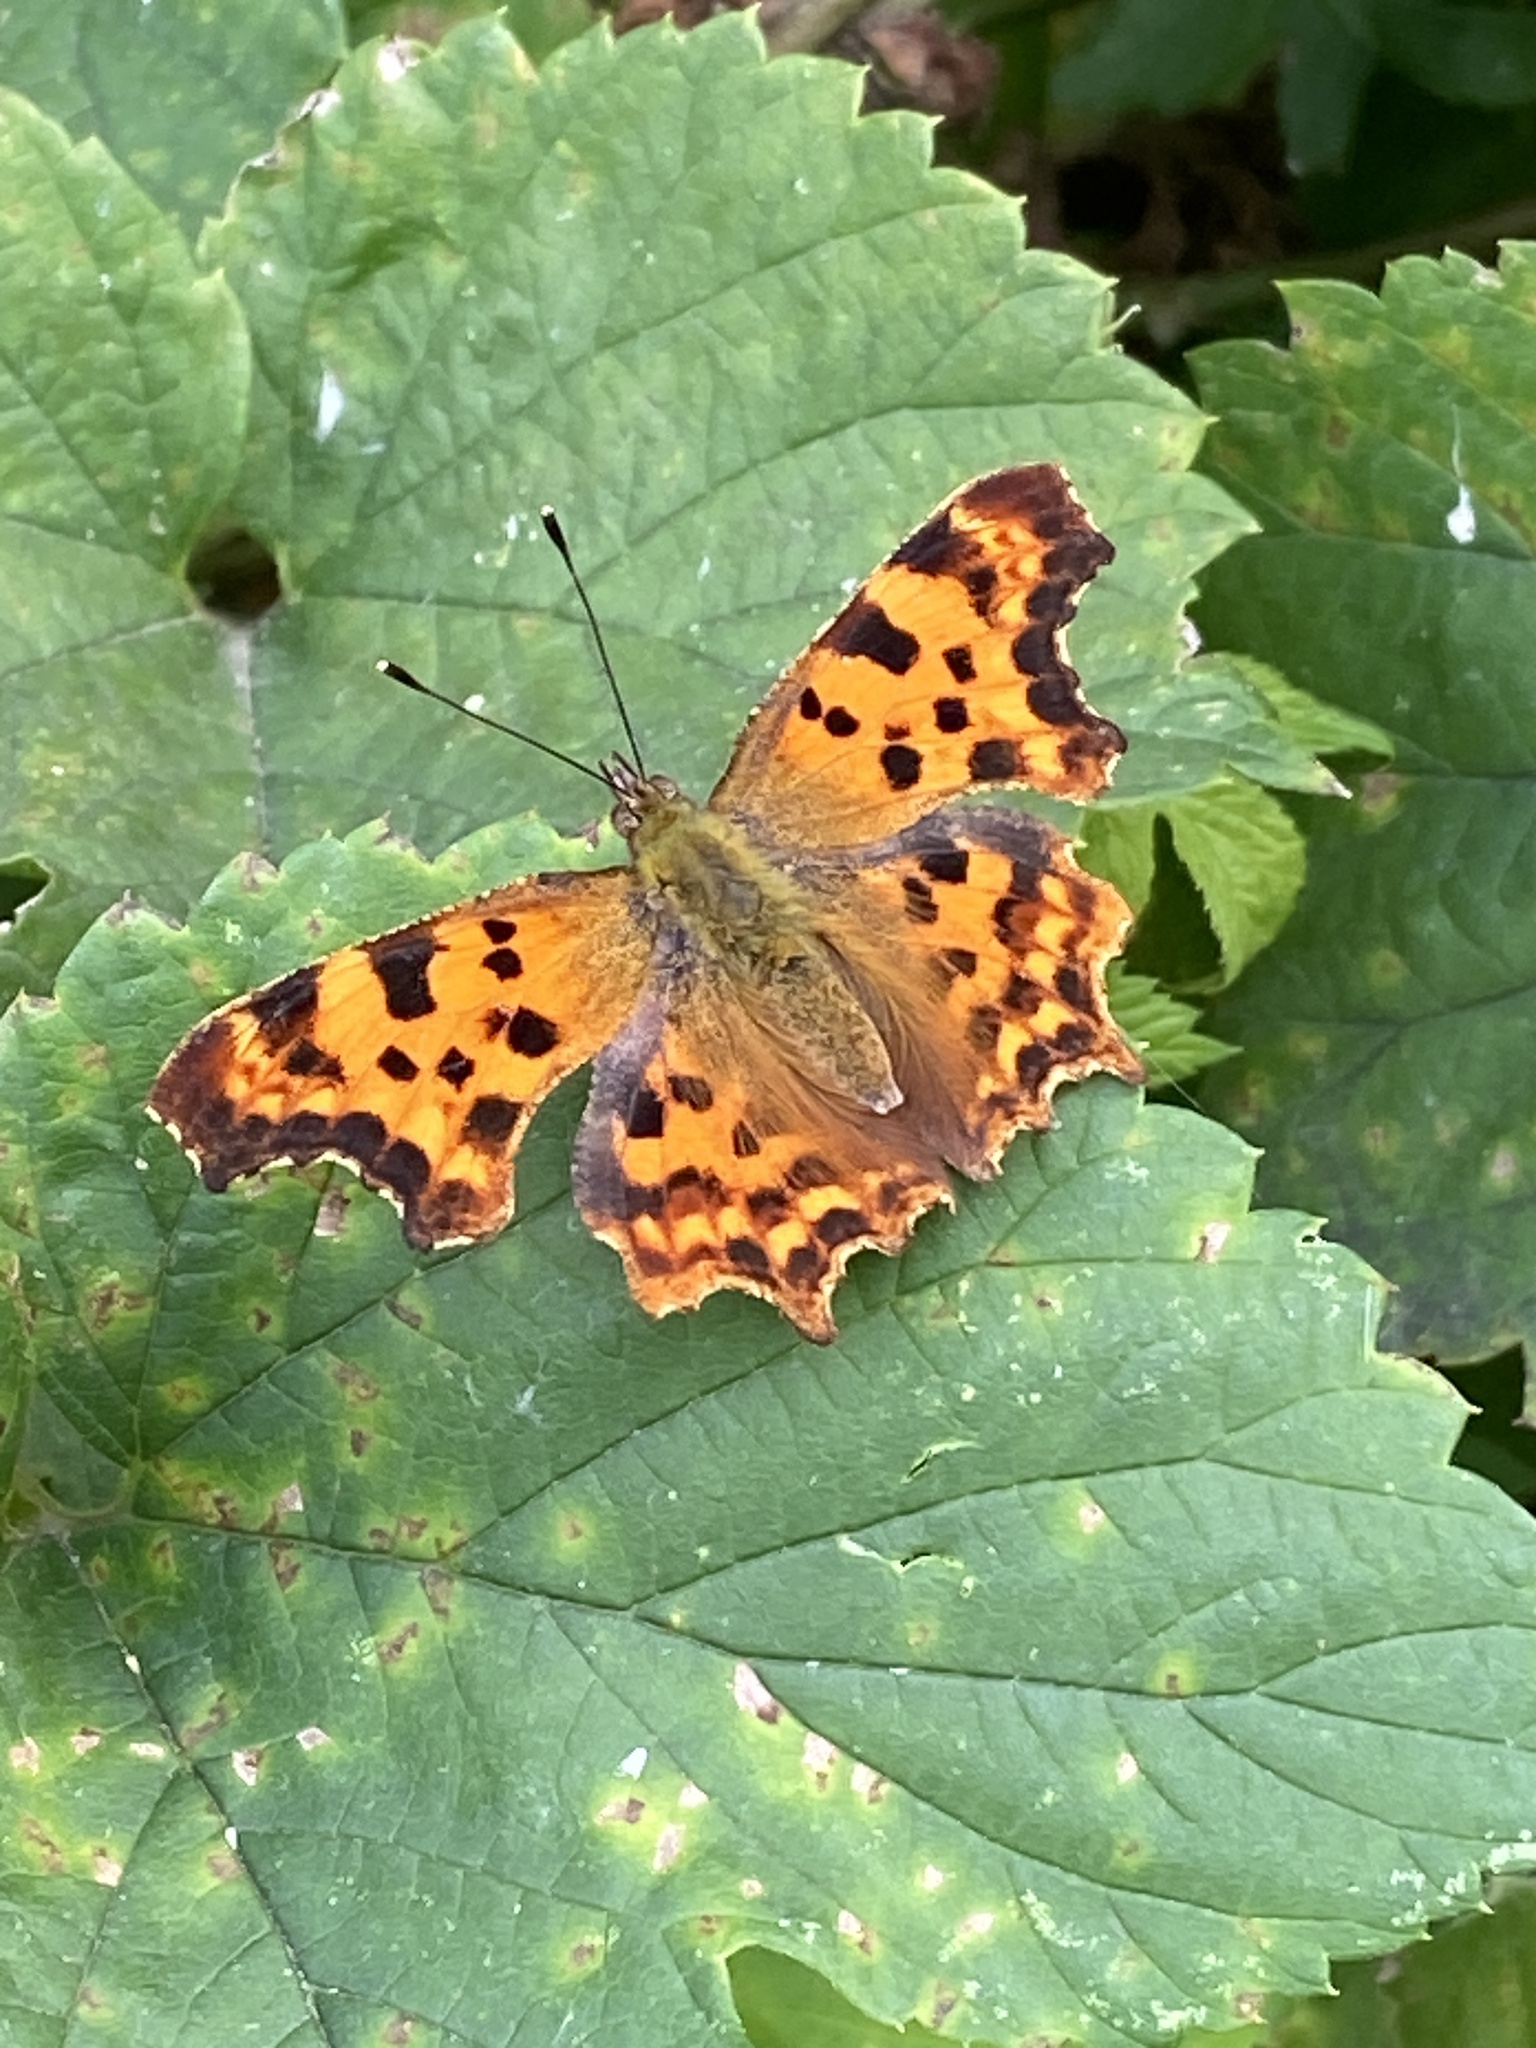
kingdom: Animalia
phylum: Arthropoda
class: Insecta
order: Lepidoptera
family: Nymphalidae
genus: Polygonia
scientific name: Polygonia c-album
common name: Comma
